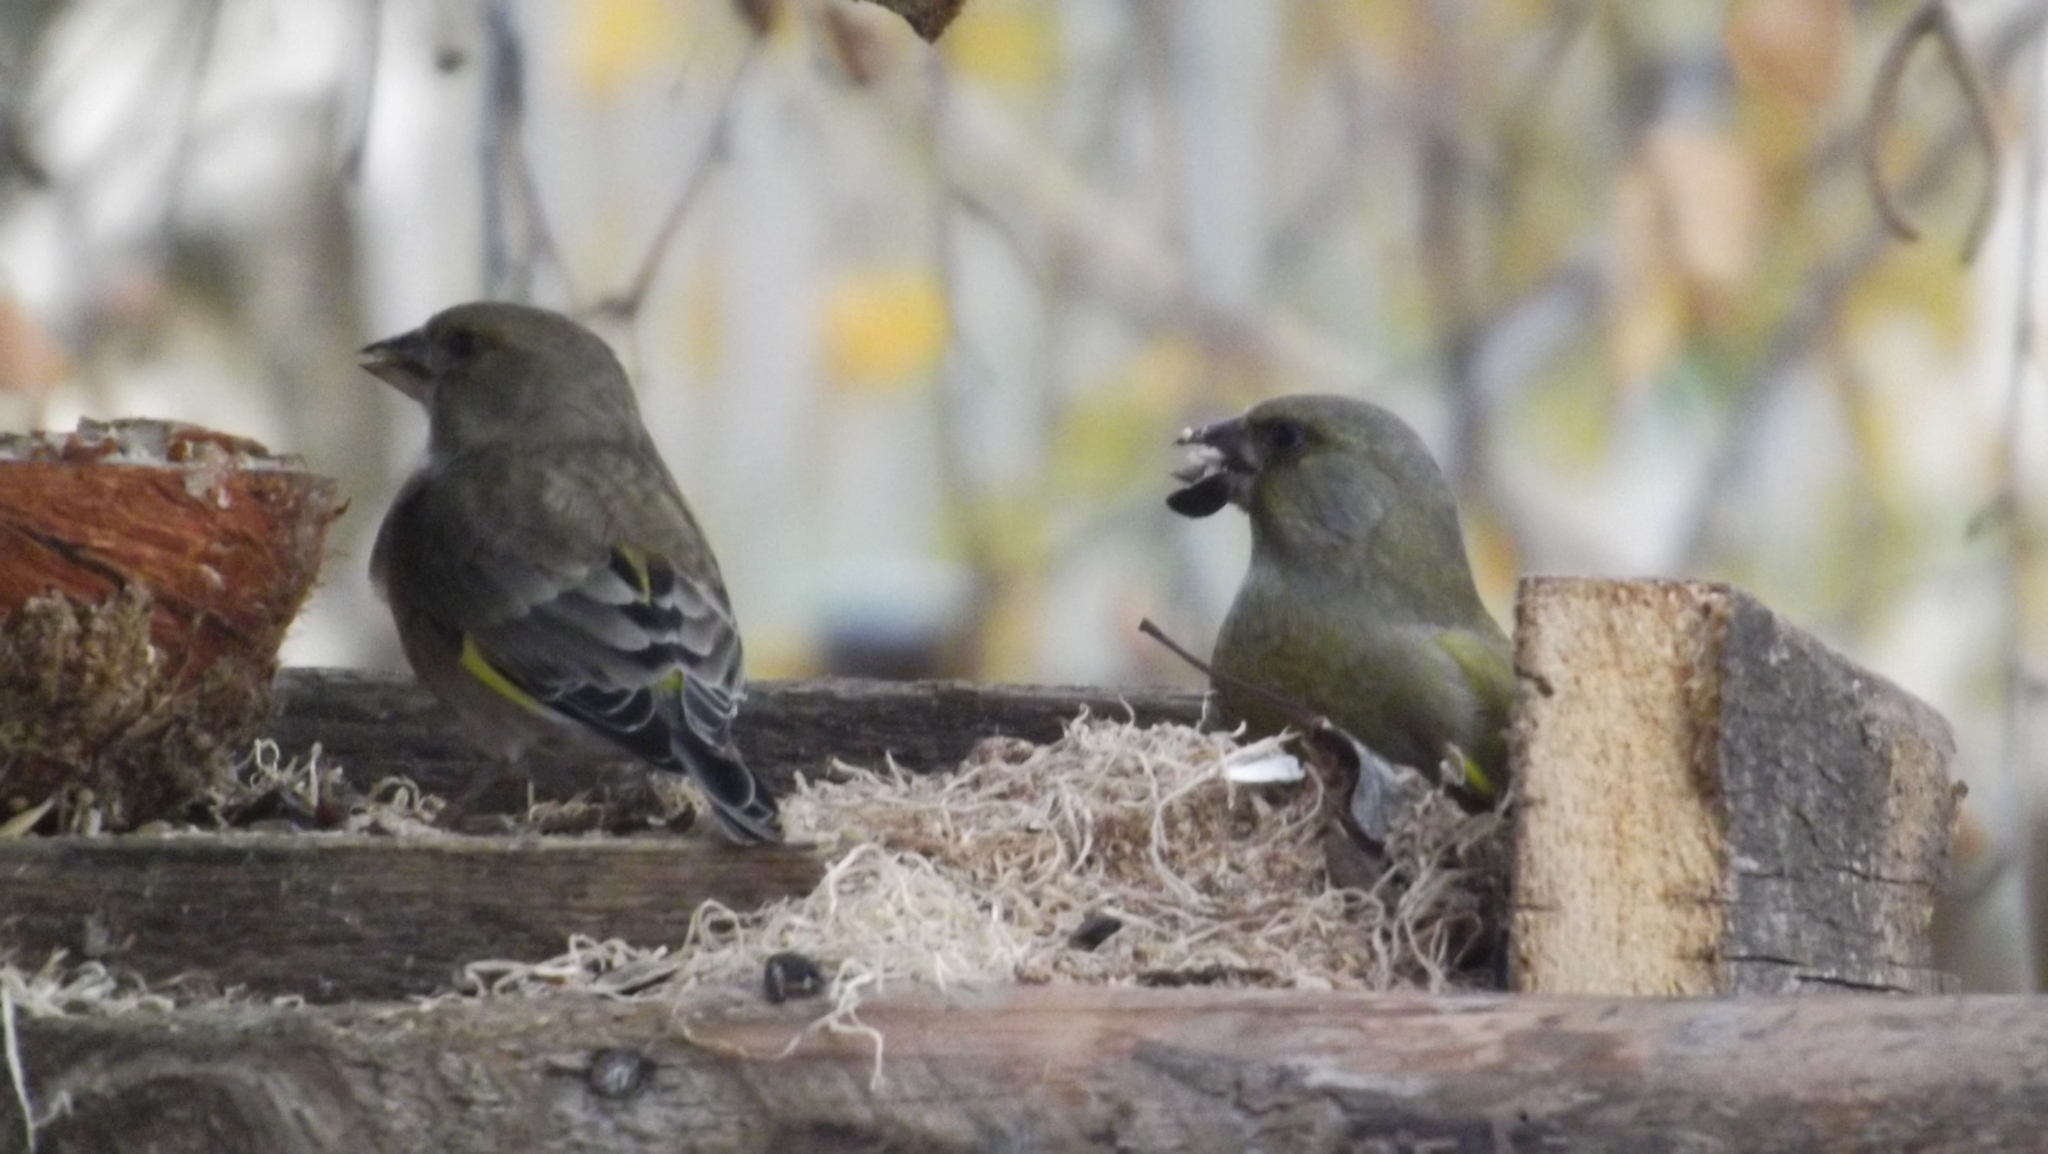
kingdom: Plantae
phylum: Tracheophyta
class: Liliopsida
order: Poales
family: Poaceae
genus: Chloris
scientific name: Chloris chloris
